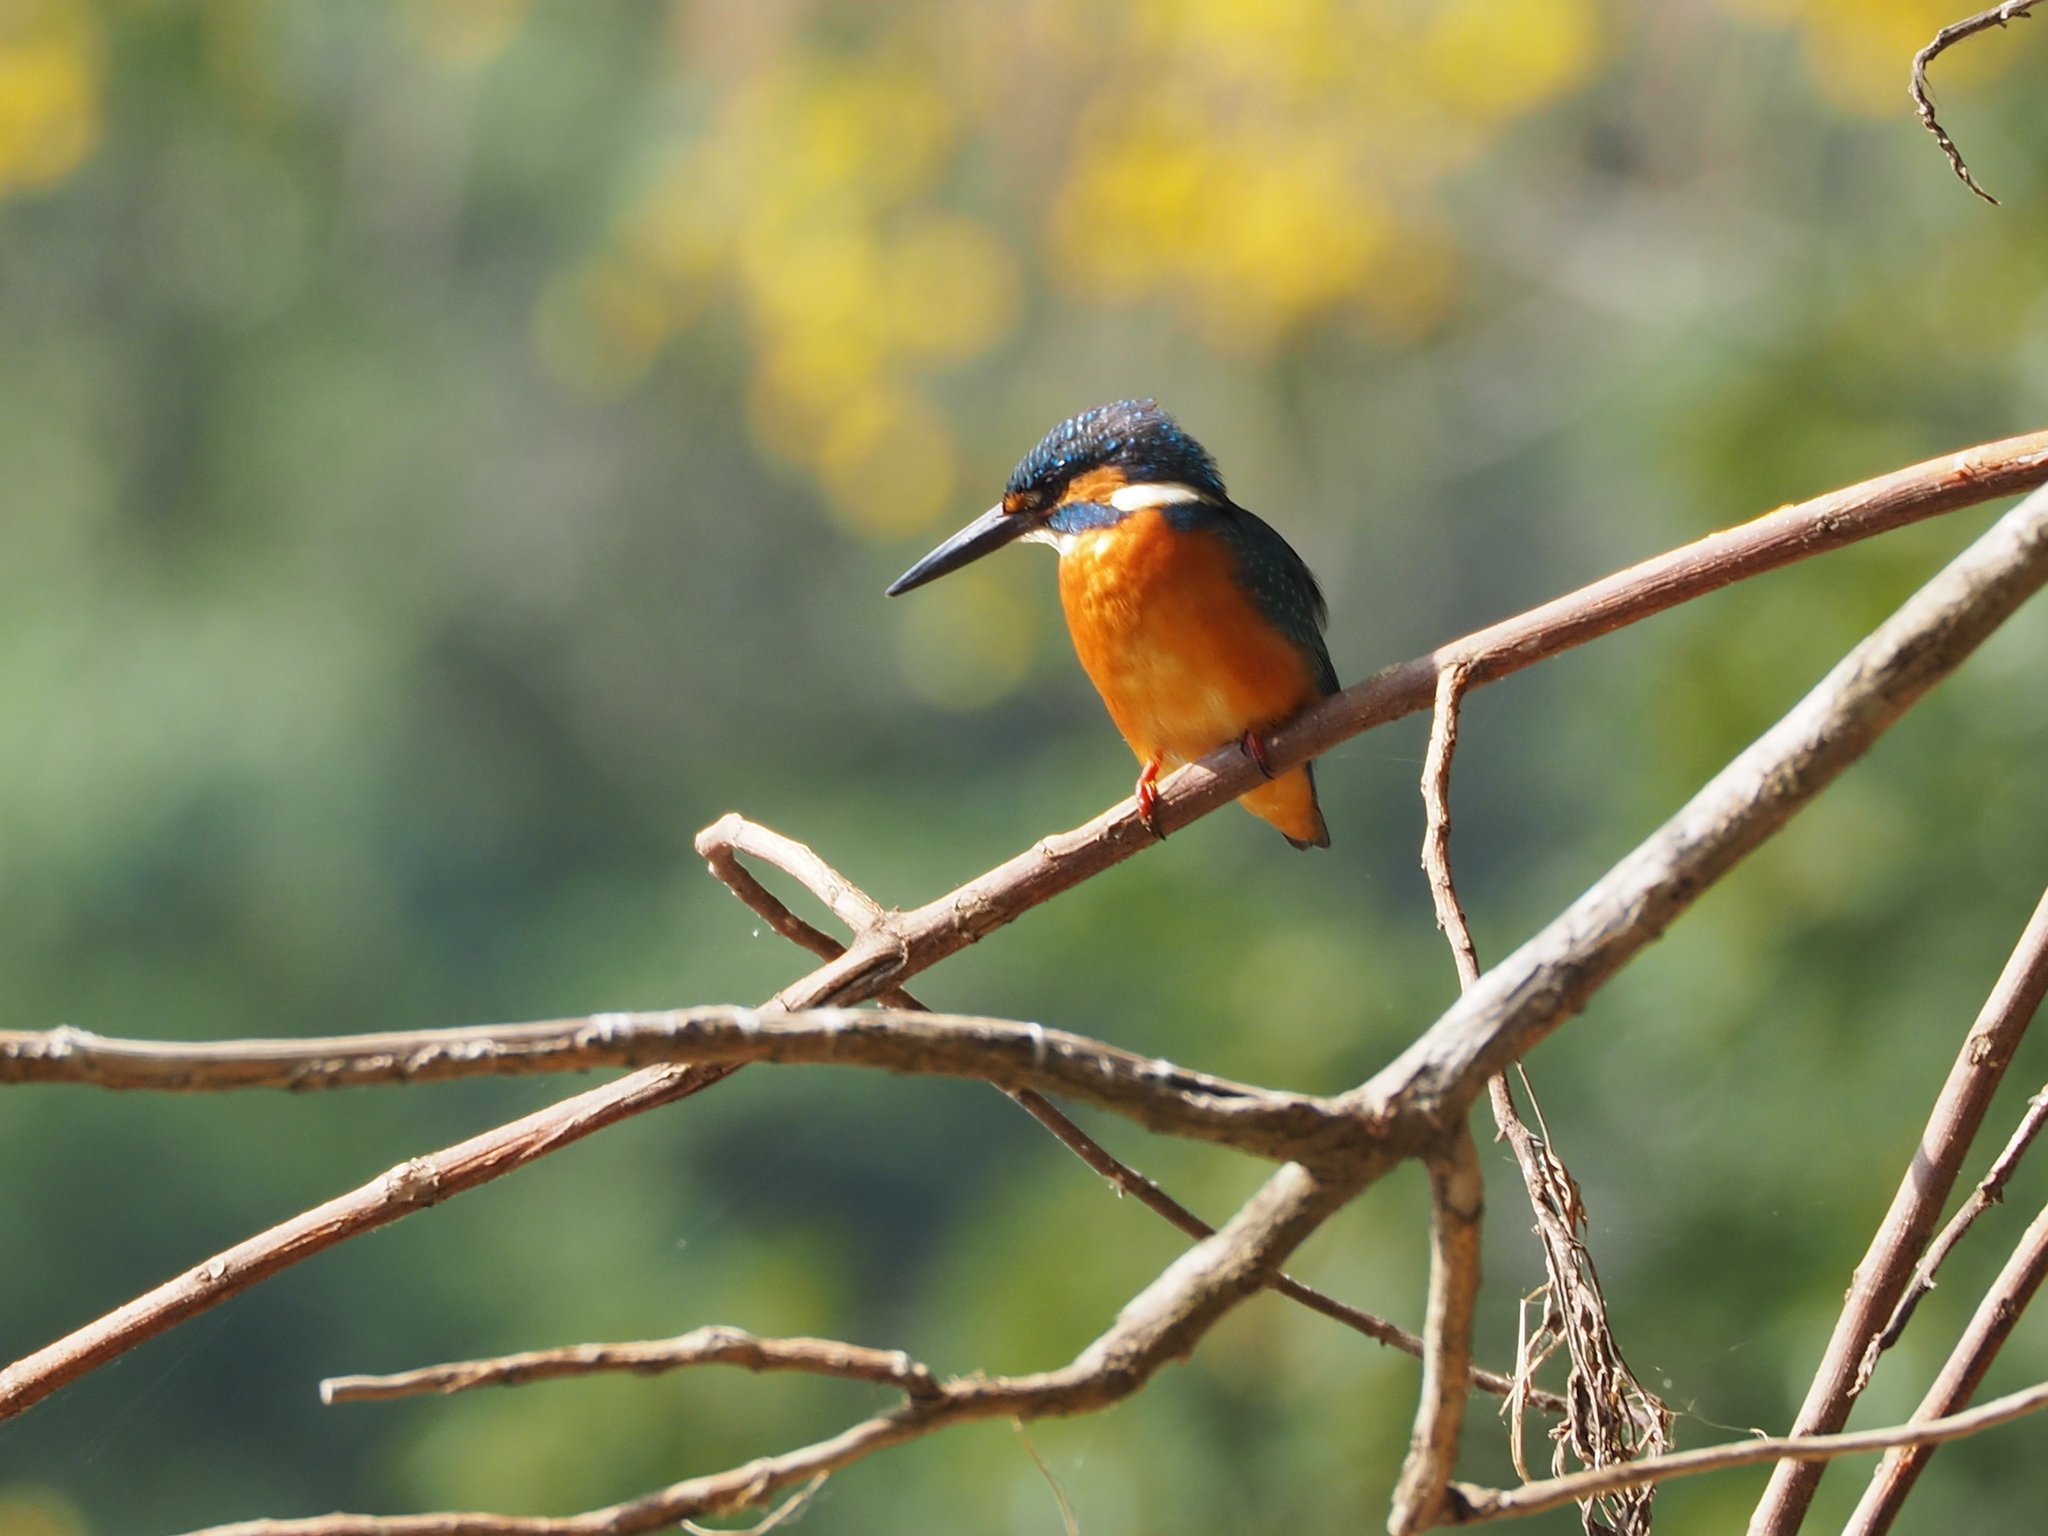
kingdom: Animalia
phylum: Chordata
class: Aves
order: Coraciiformes
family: Alcedinidae
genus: Alcedo
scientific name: Alcedo atthis
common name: Common kingfisher
